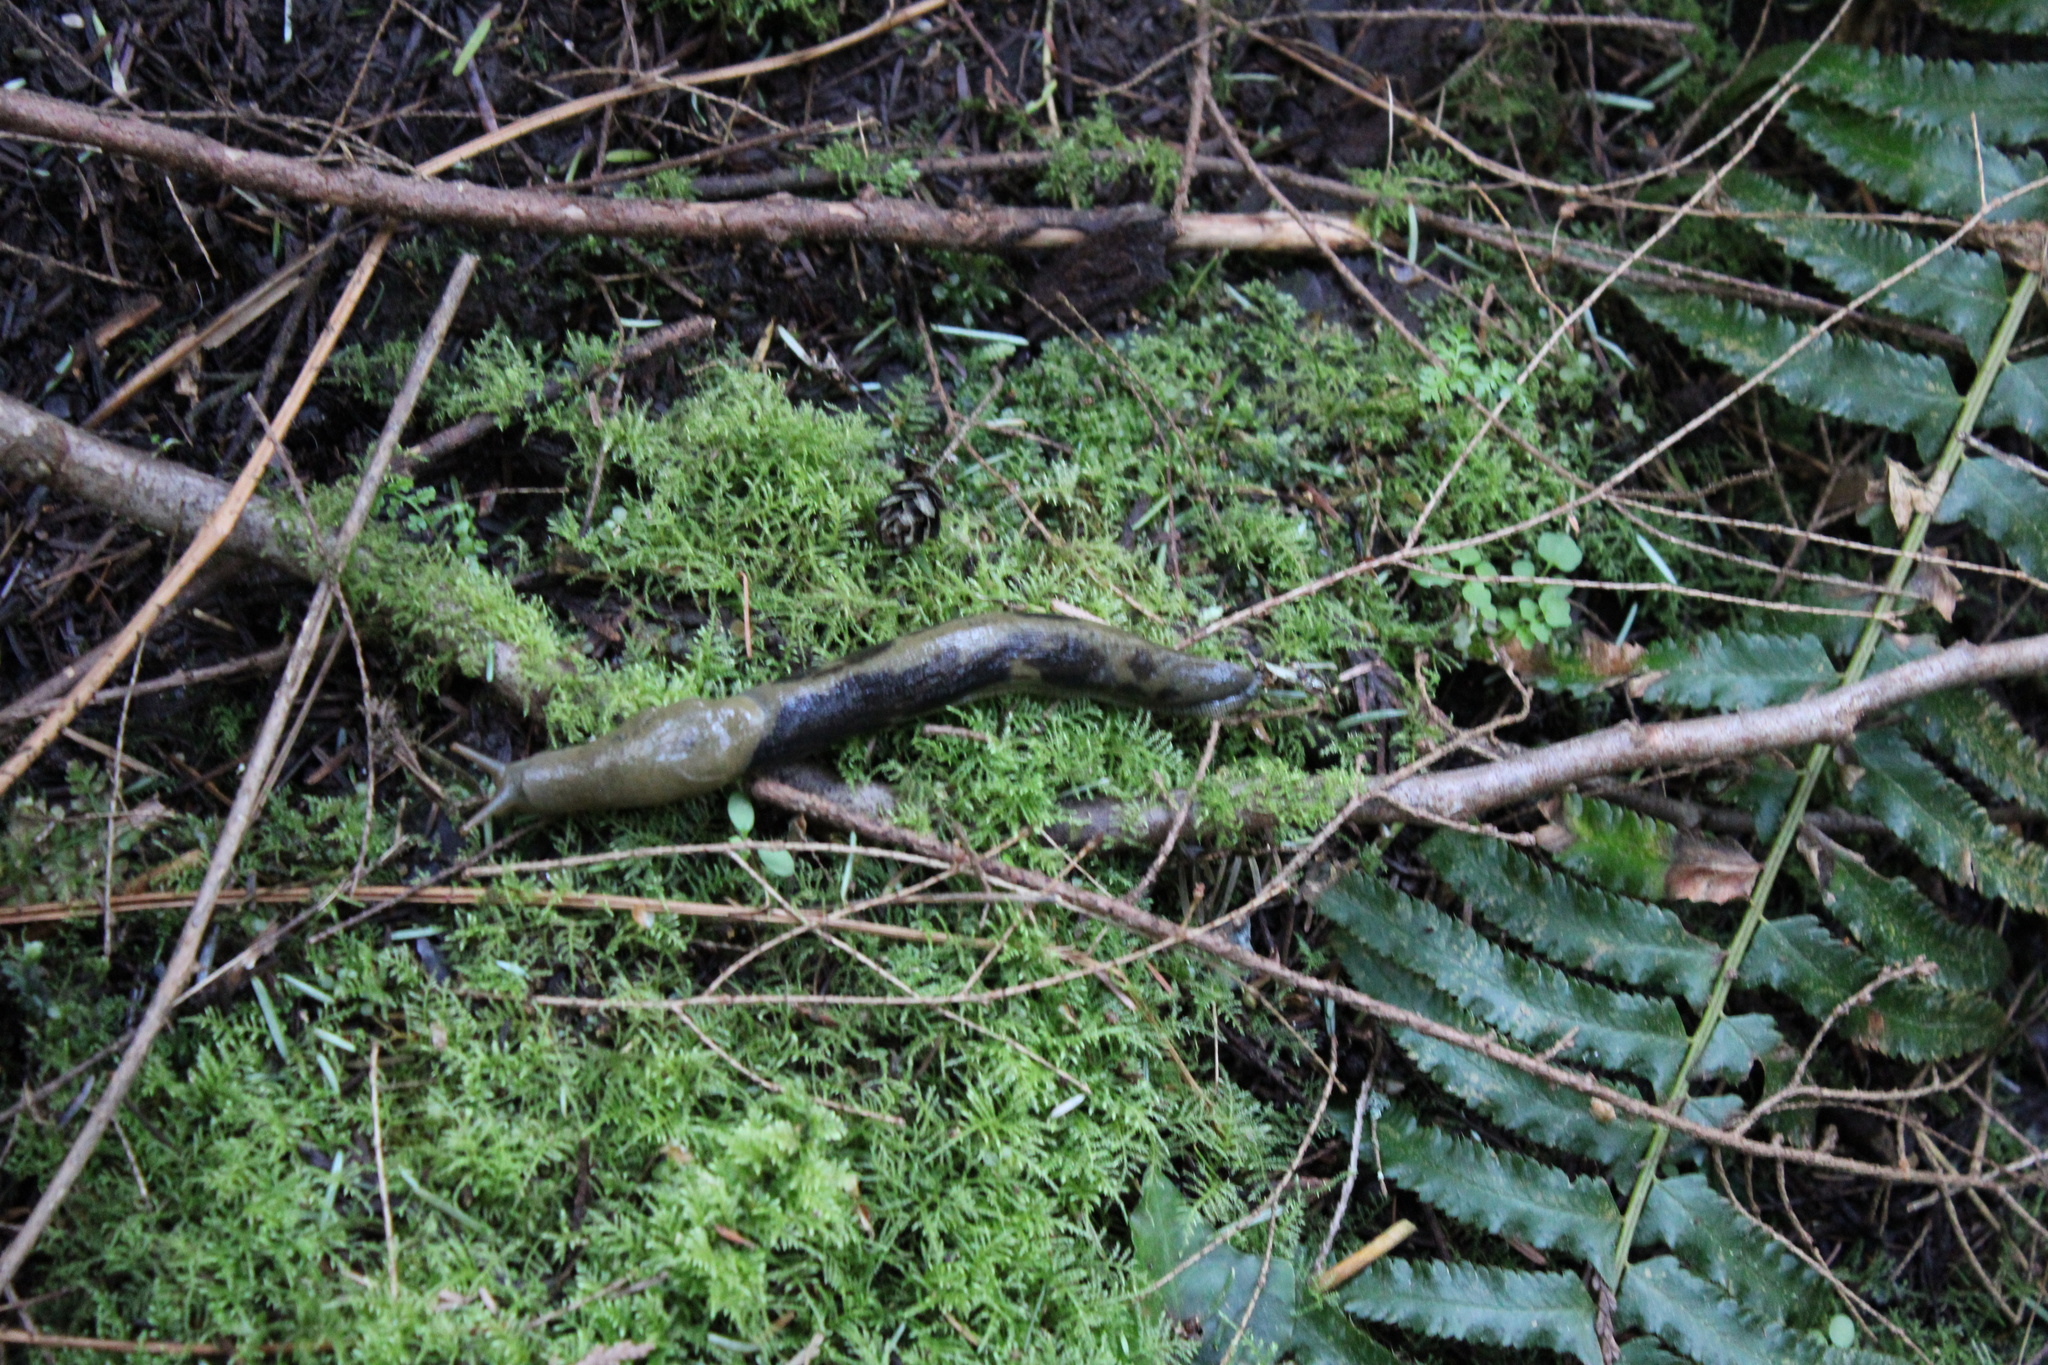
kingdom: Animalia
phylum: Mollusca
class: Gastropoda
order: Stylommatophora
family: Ariolimacidae
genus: Ariolimax
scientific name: Ariolimax columbianus
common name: Pacific banana slug
